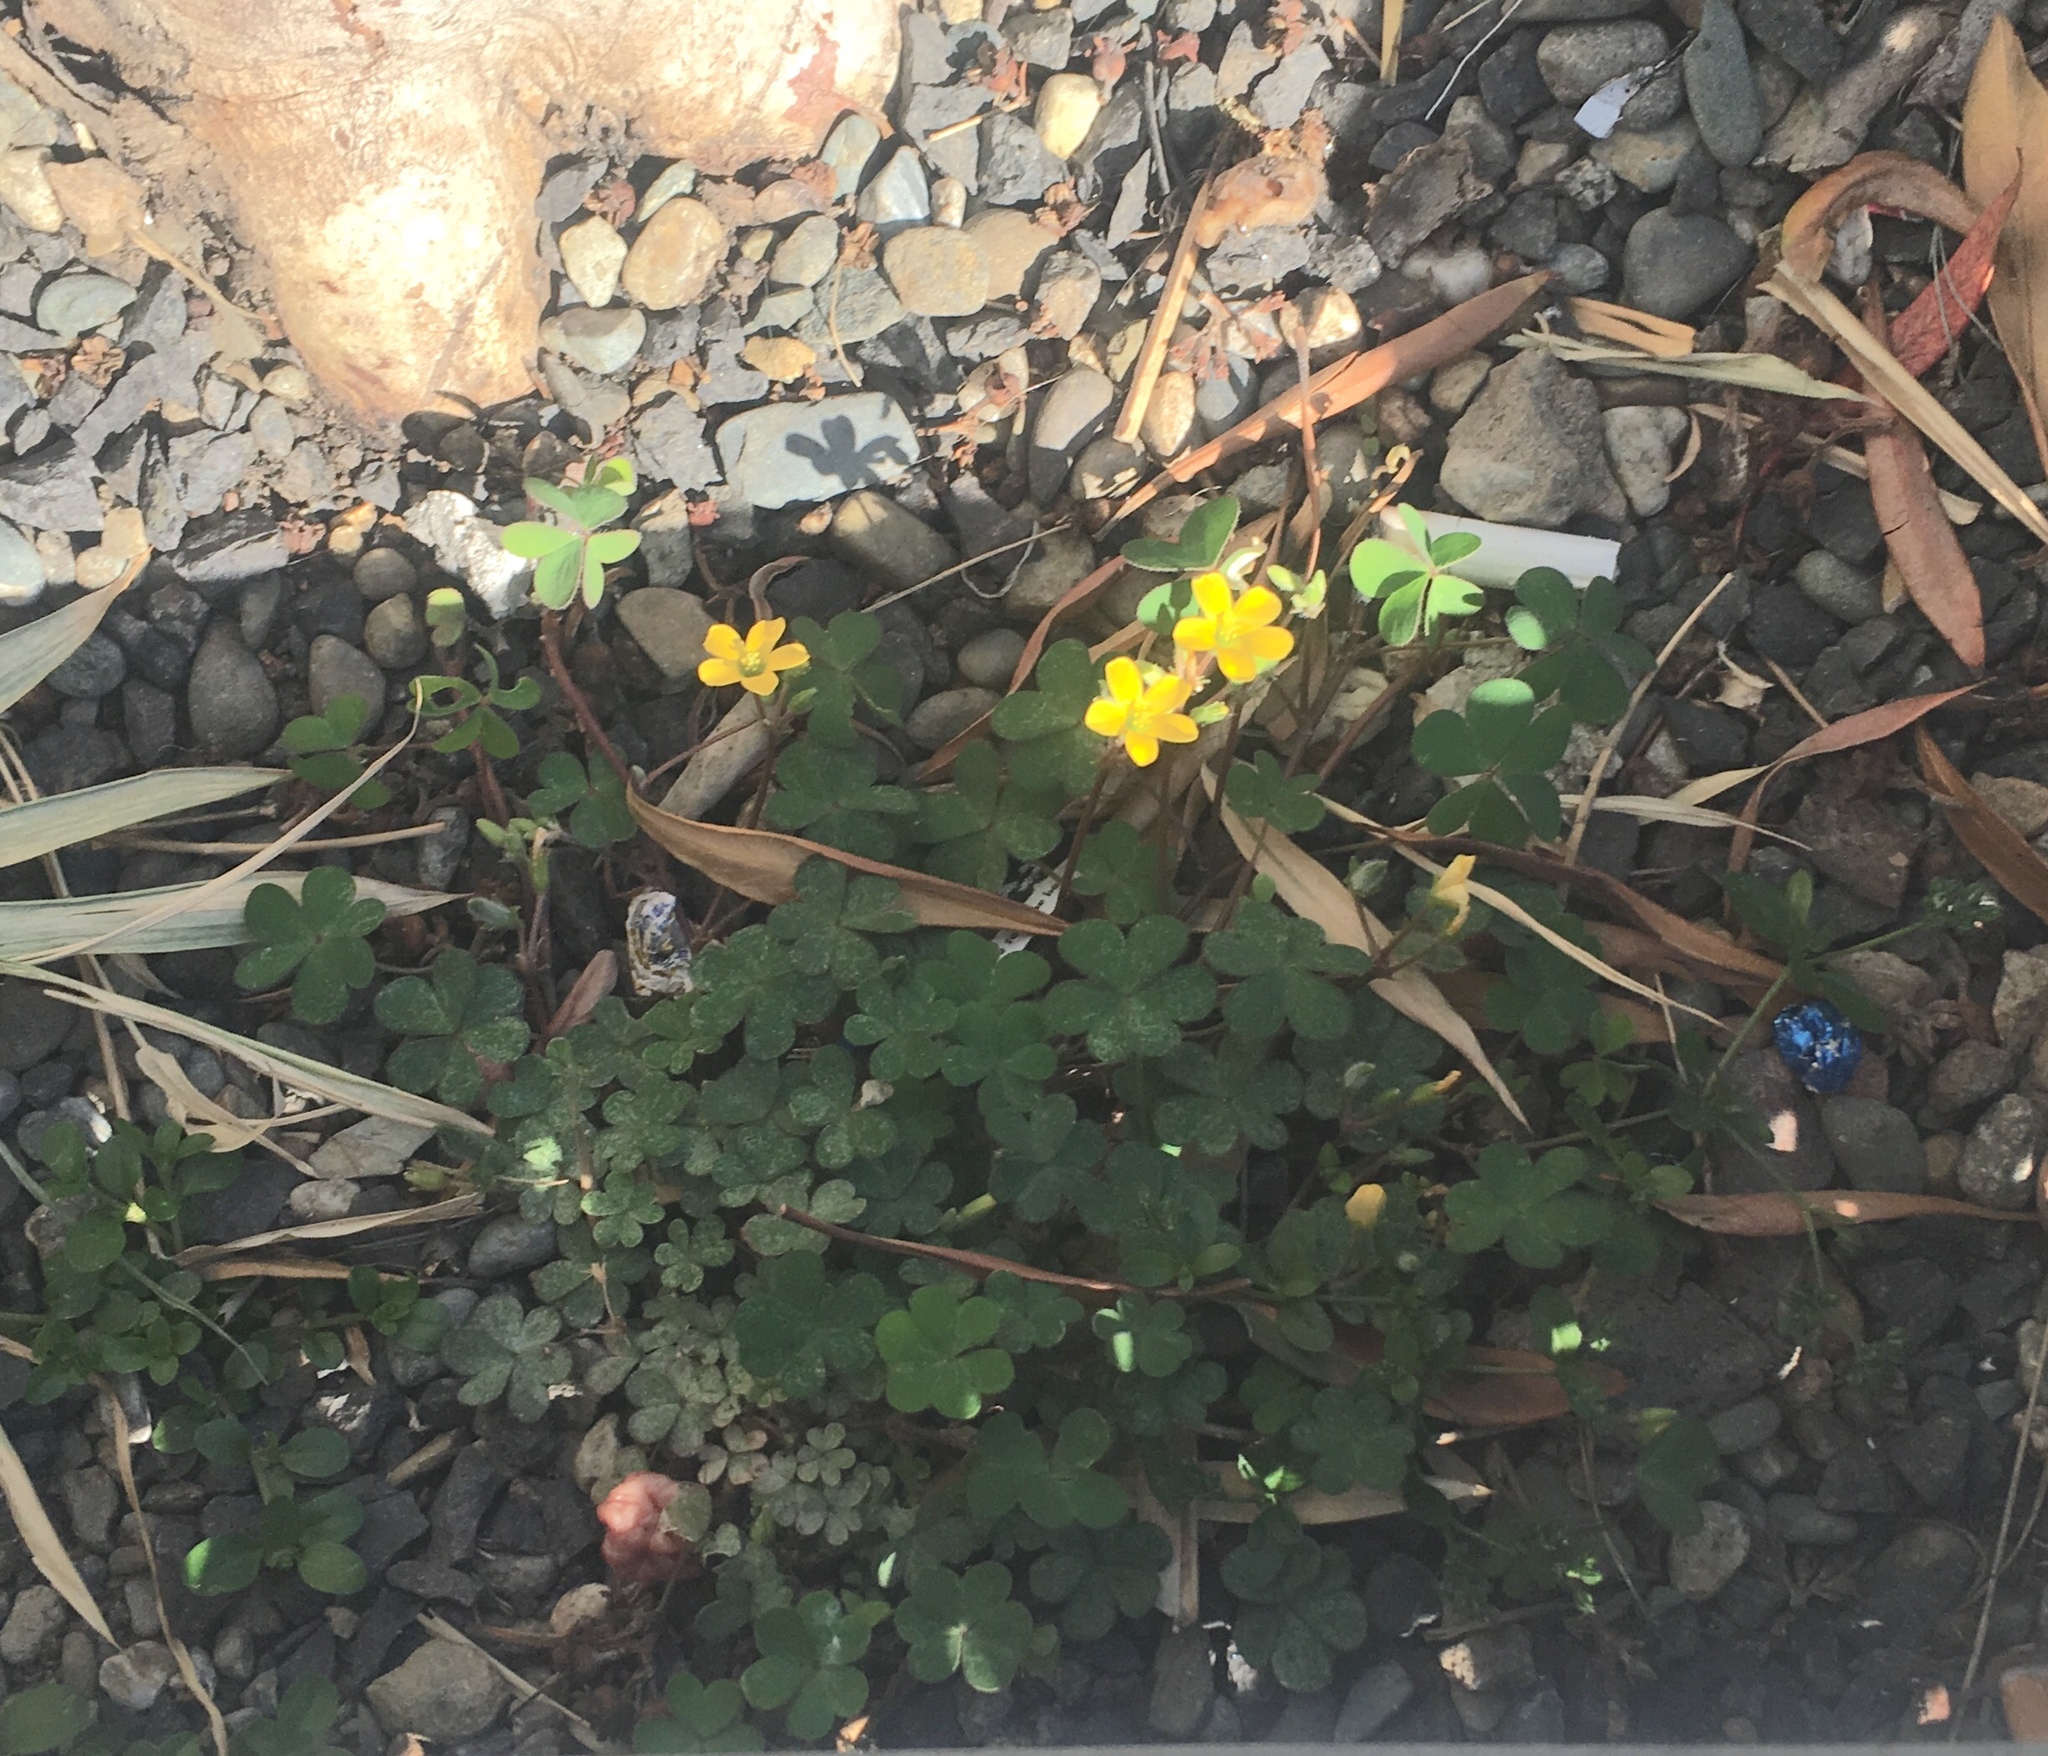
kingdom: Plantae
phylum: Tracheophyta
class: Magnoliopsida
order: Oxalidales
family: Oxalidaceae
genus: Oxalis
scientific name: Oxalis corniculata
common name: Procumbent yellow-sorrel
